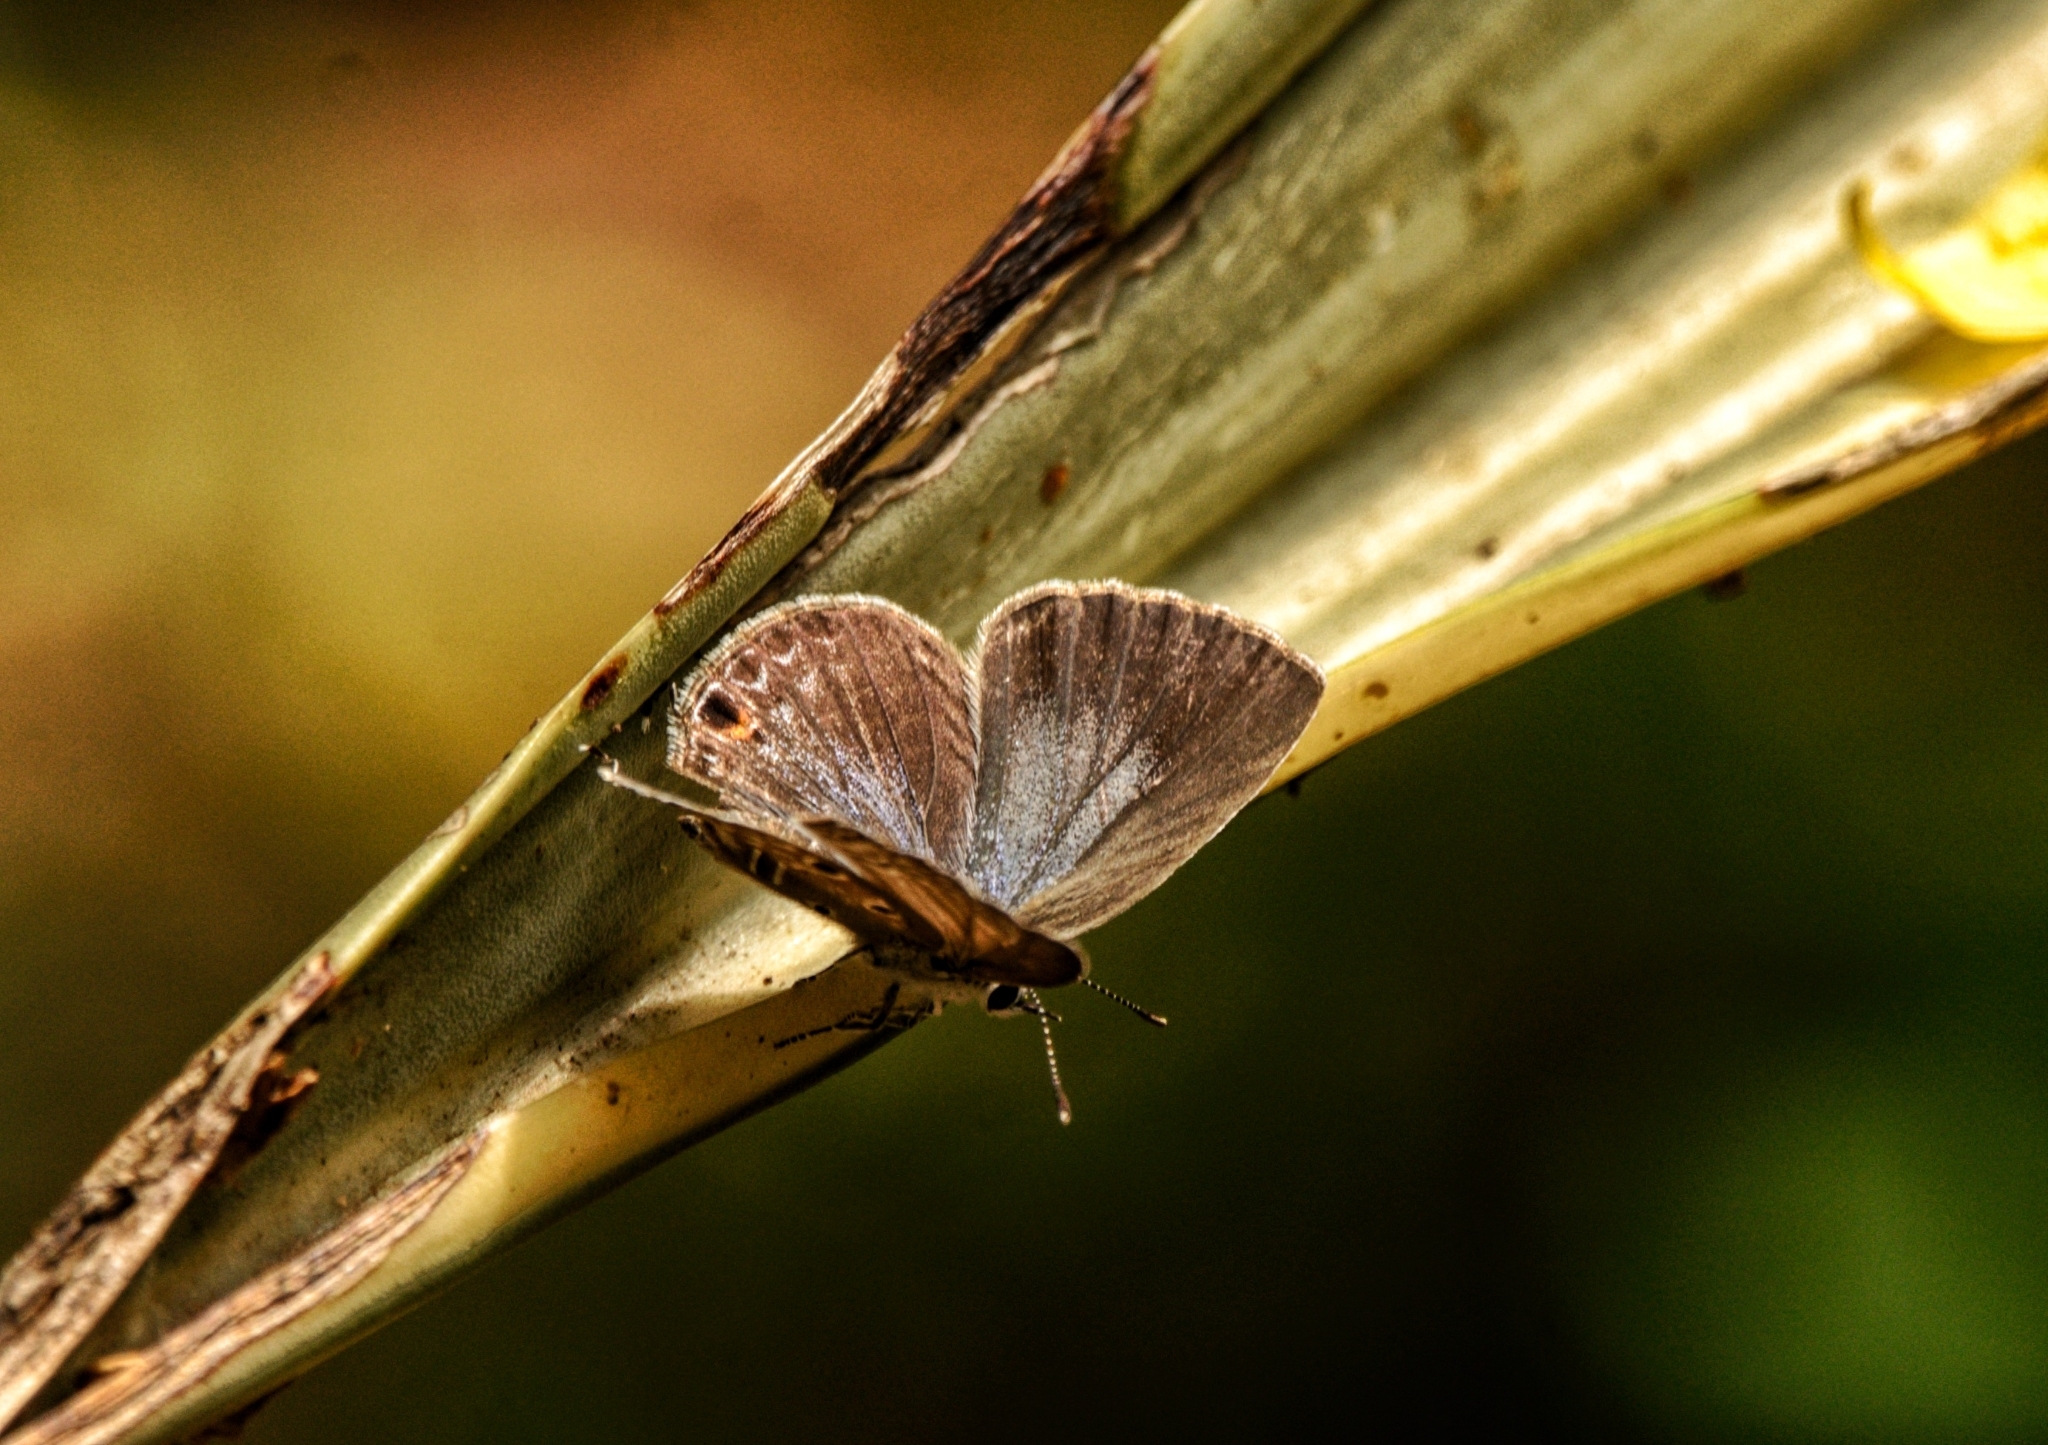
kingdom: Animalia
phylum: Arthropoda
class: Insecta
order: Lepidoptera
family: Lycaenidae
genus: Luthrodes
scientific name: Luthrodes pandava
